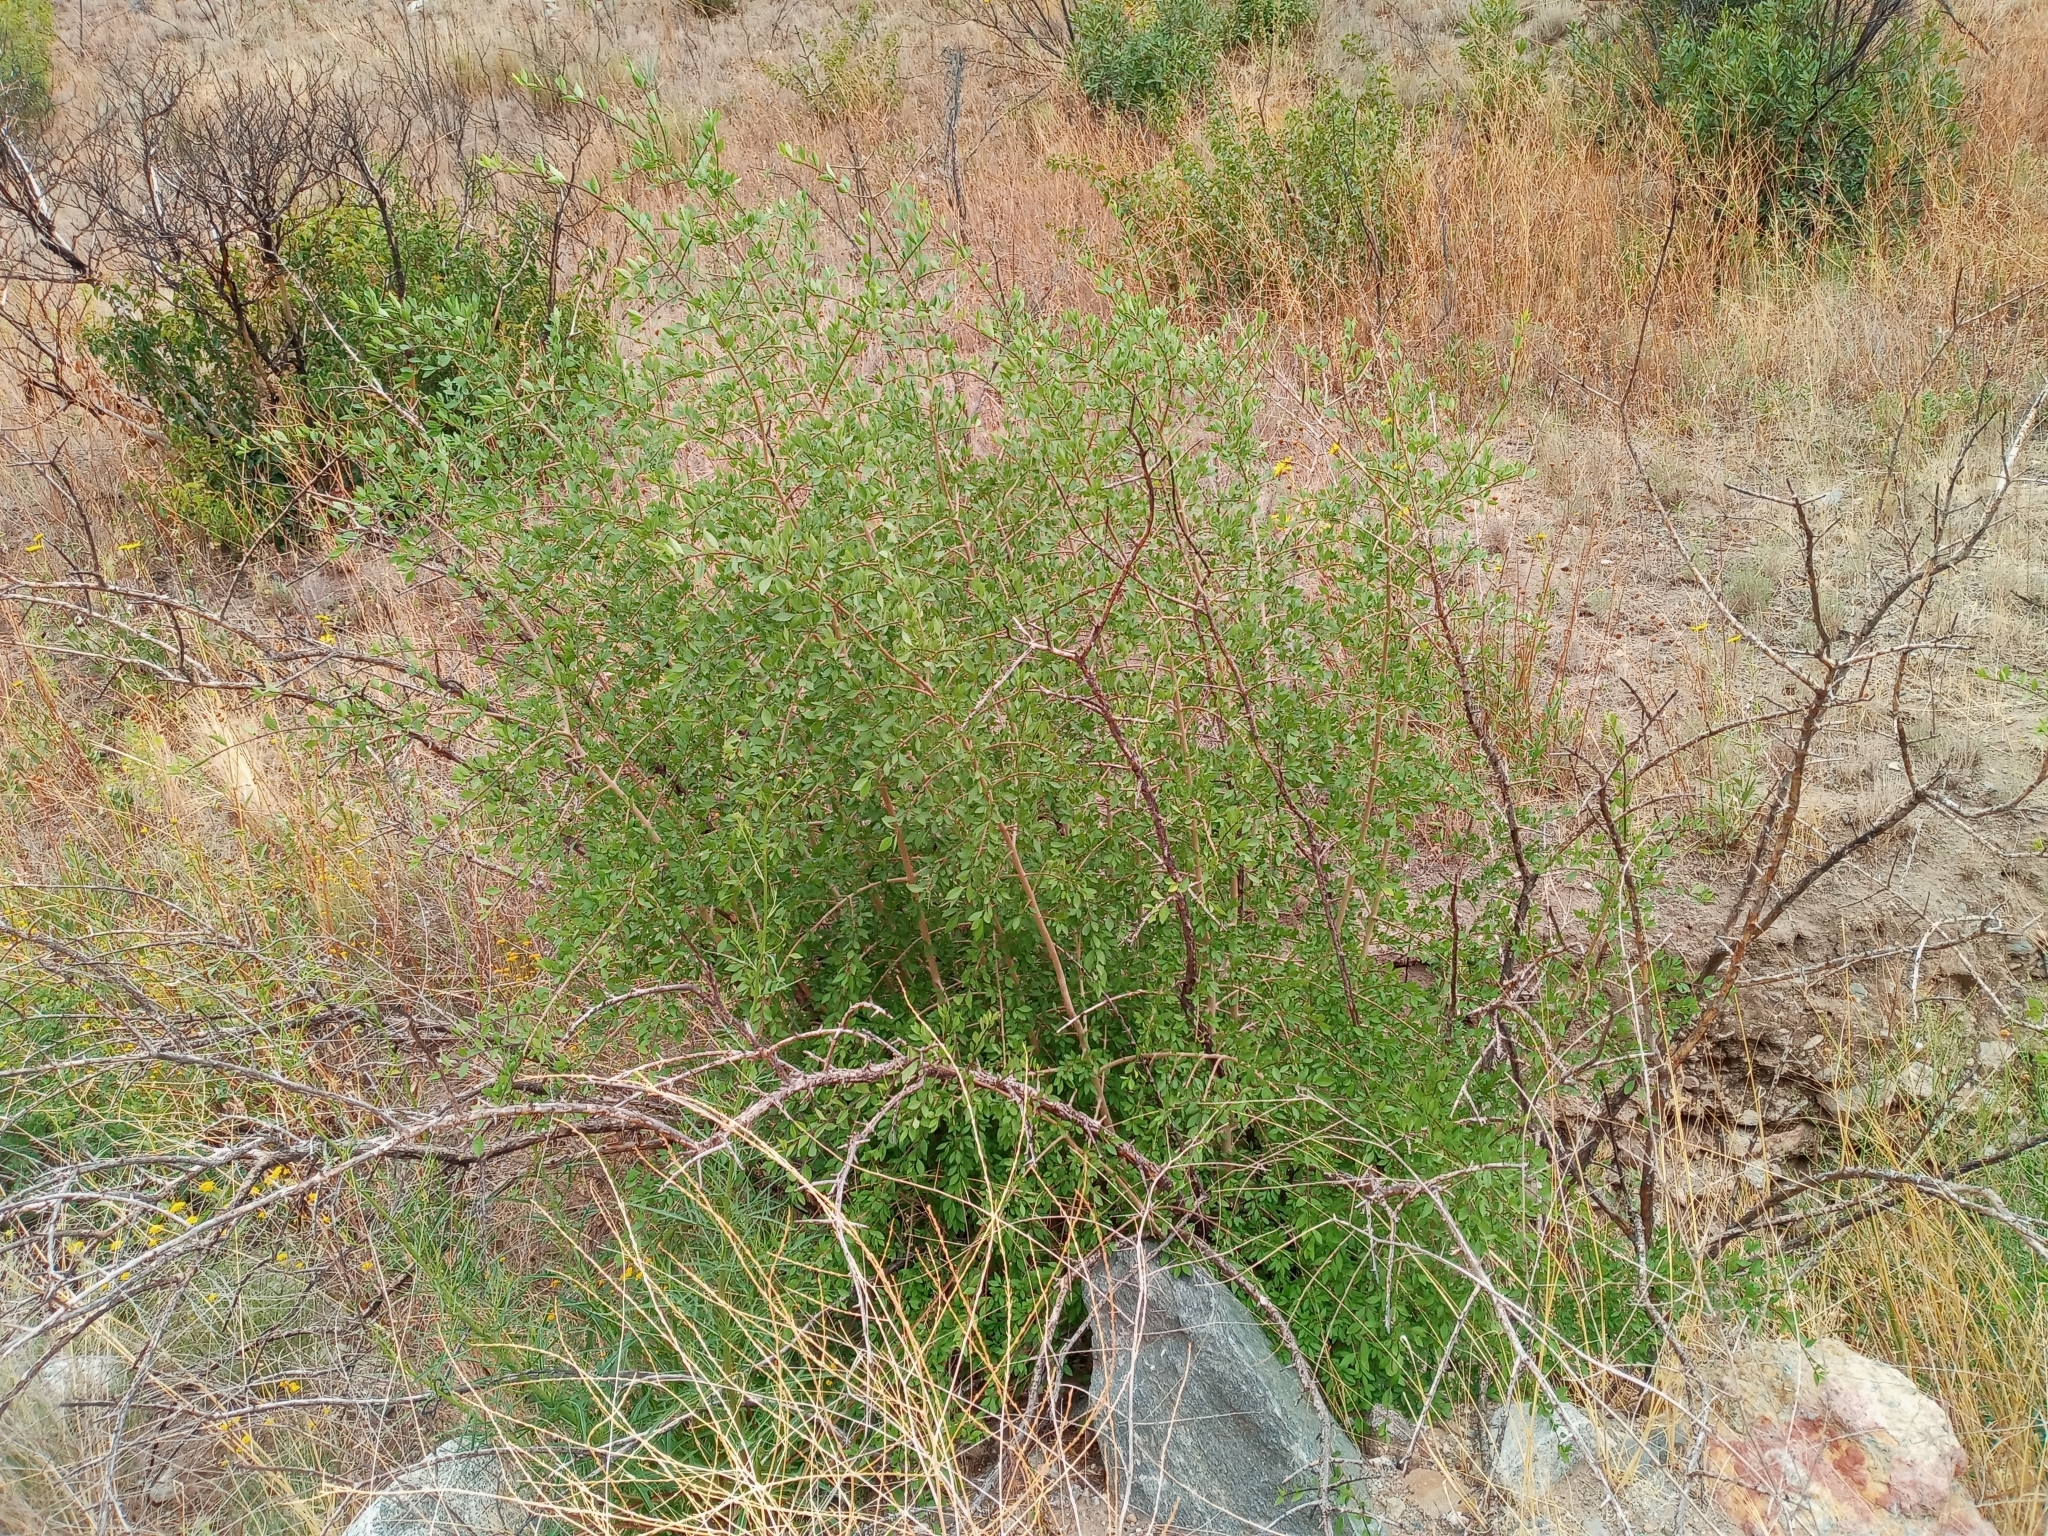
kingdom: Plantae
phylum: Tracheophyta
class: Magnoliopsida
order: Lamiales
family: Oleaceae
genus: Forestiera
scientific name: Forestiera pubescens
